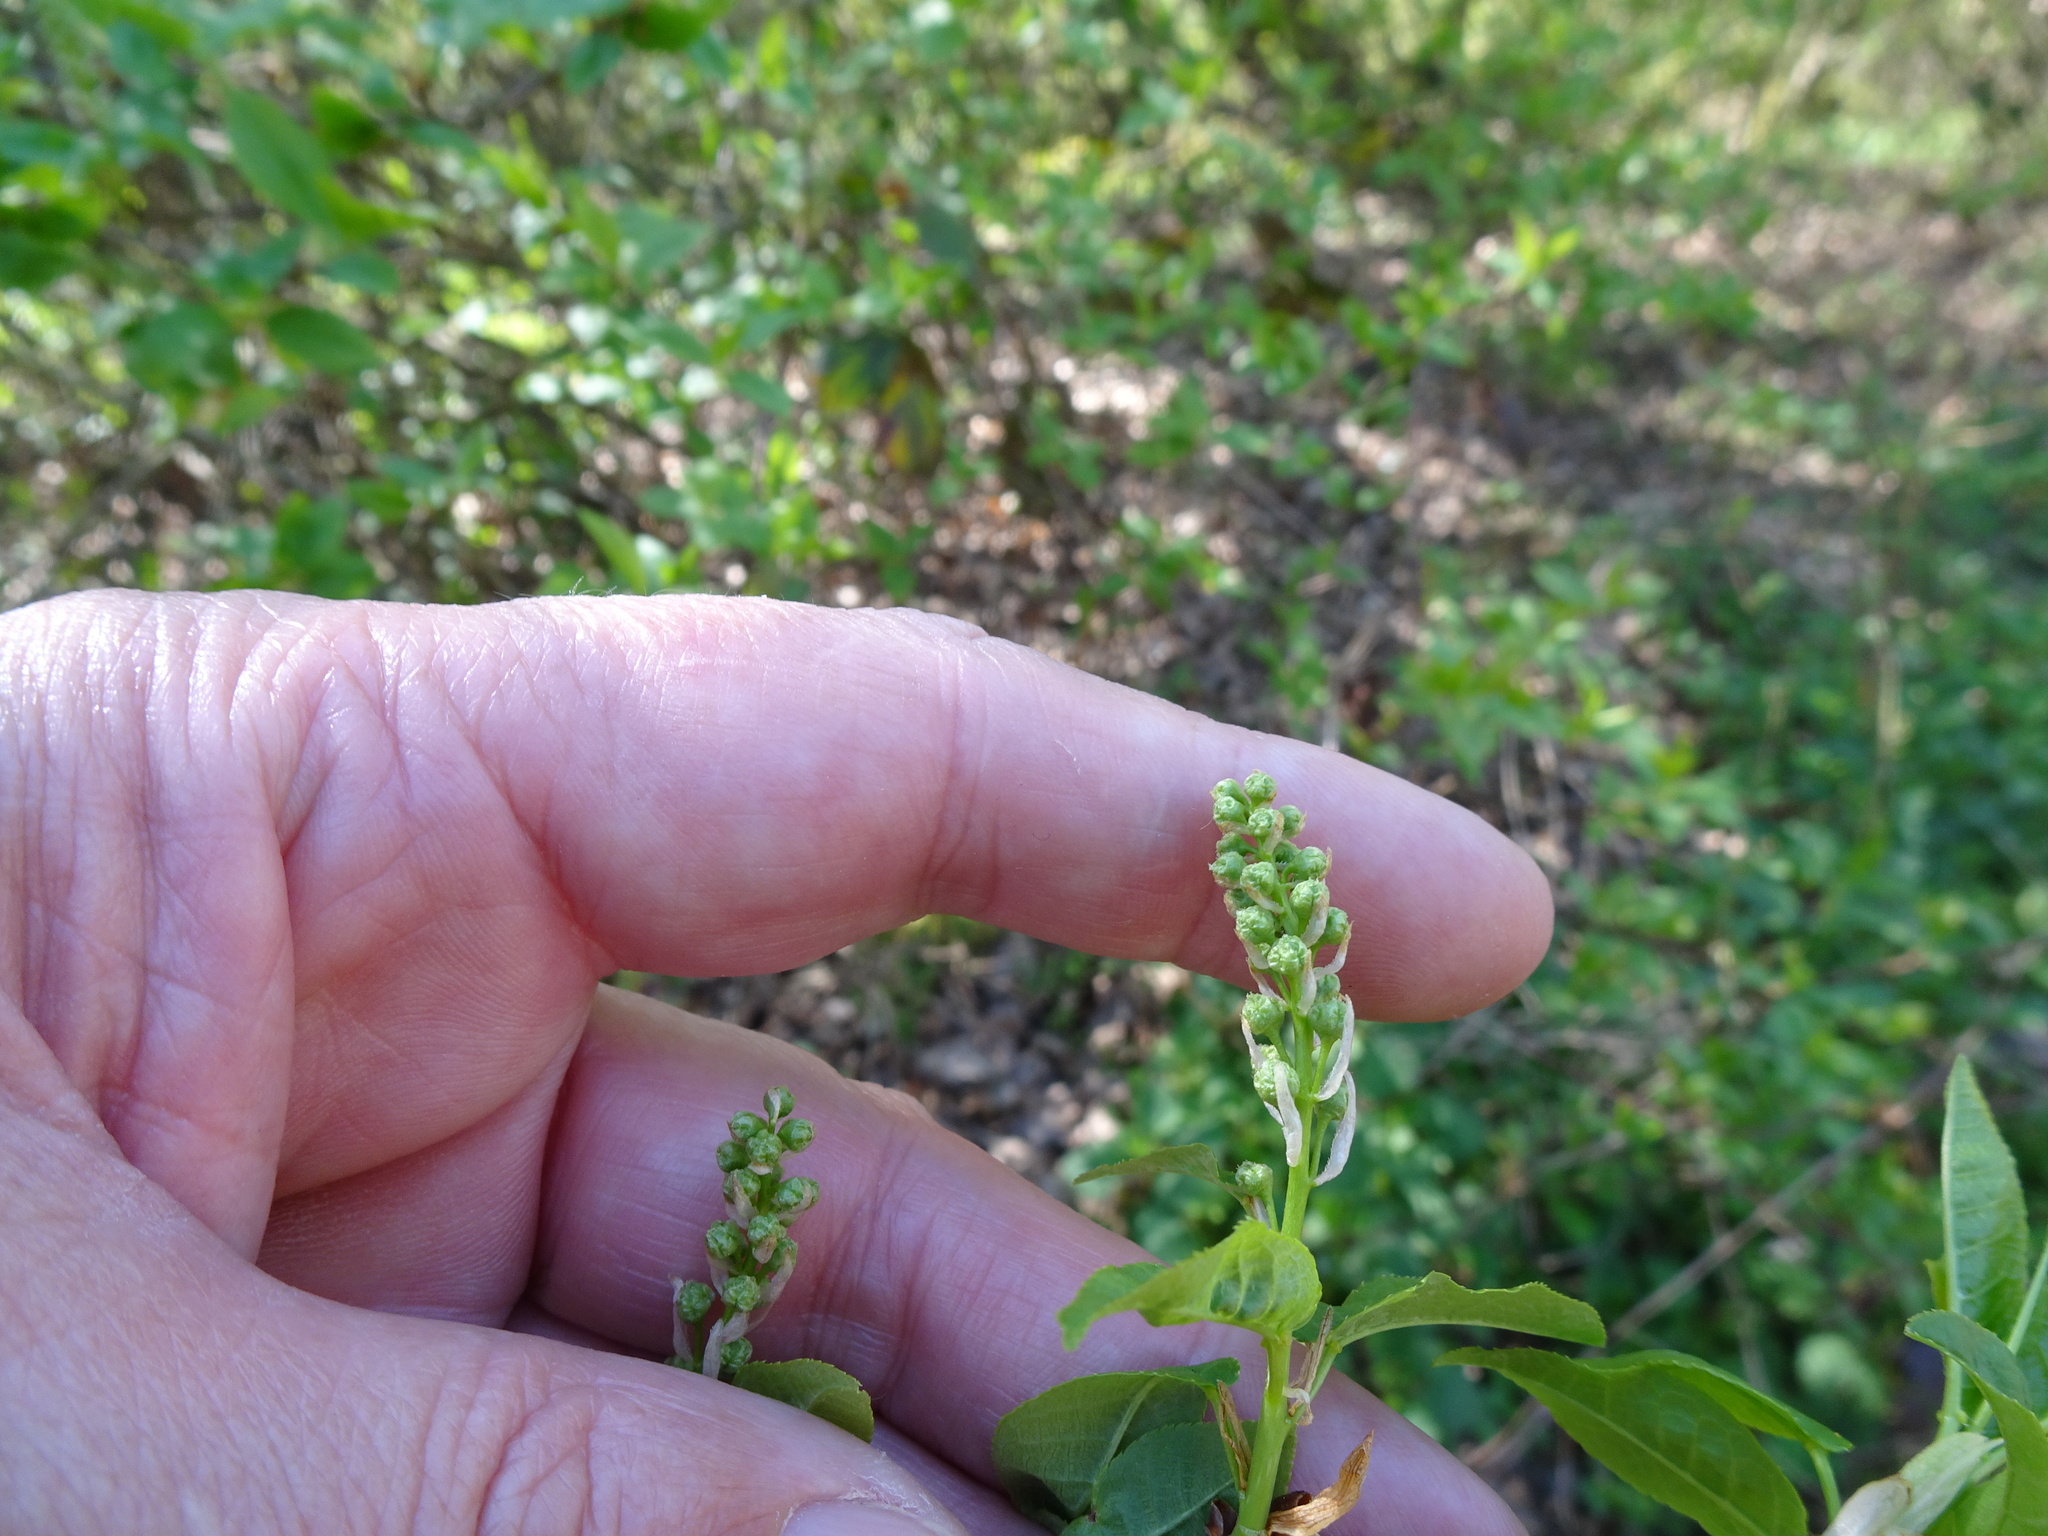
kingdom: Plantae
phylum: Tracheophyta
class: Magnoliopsida
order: Rosales
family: Rosaceae
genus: Prunus
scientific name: Prunus padus
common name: Bird cherry
